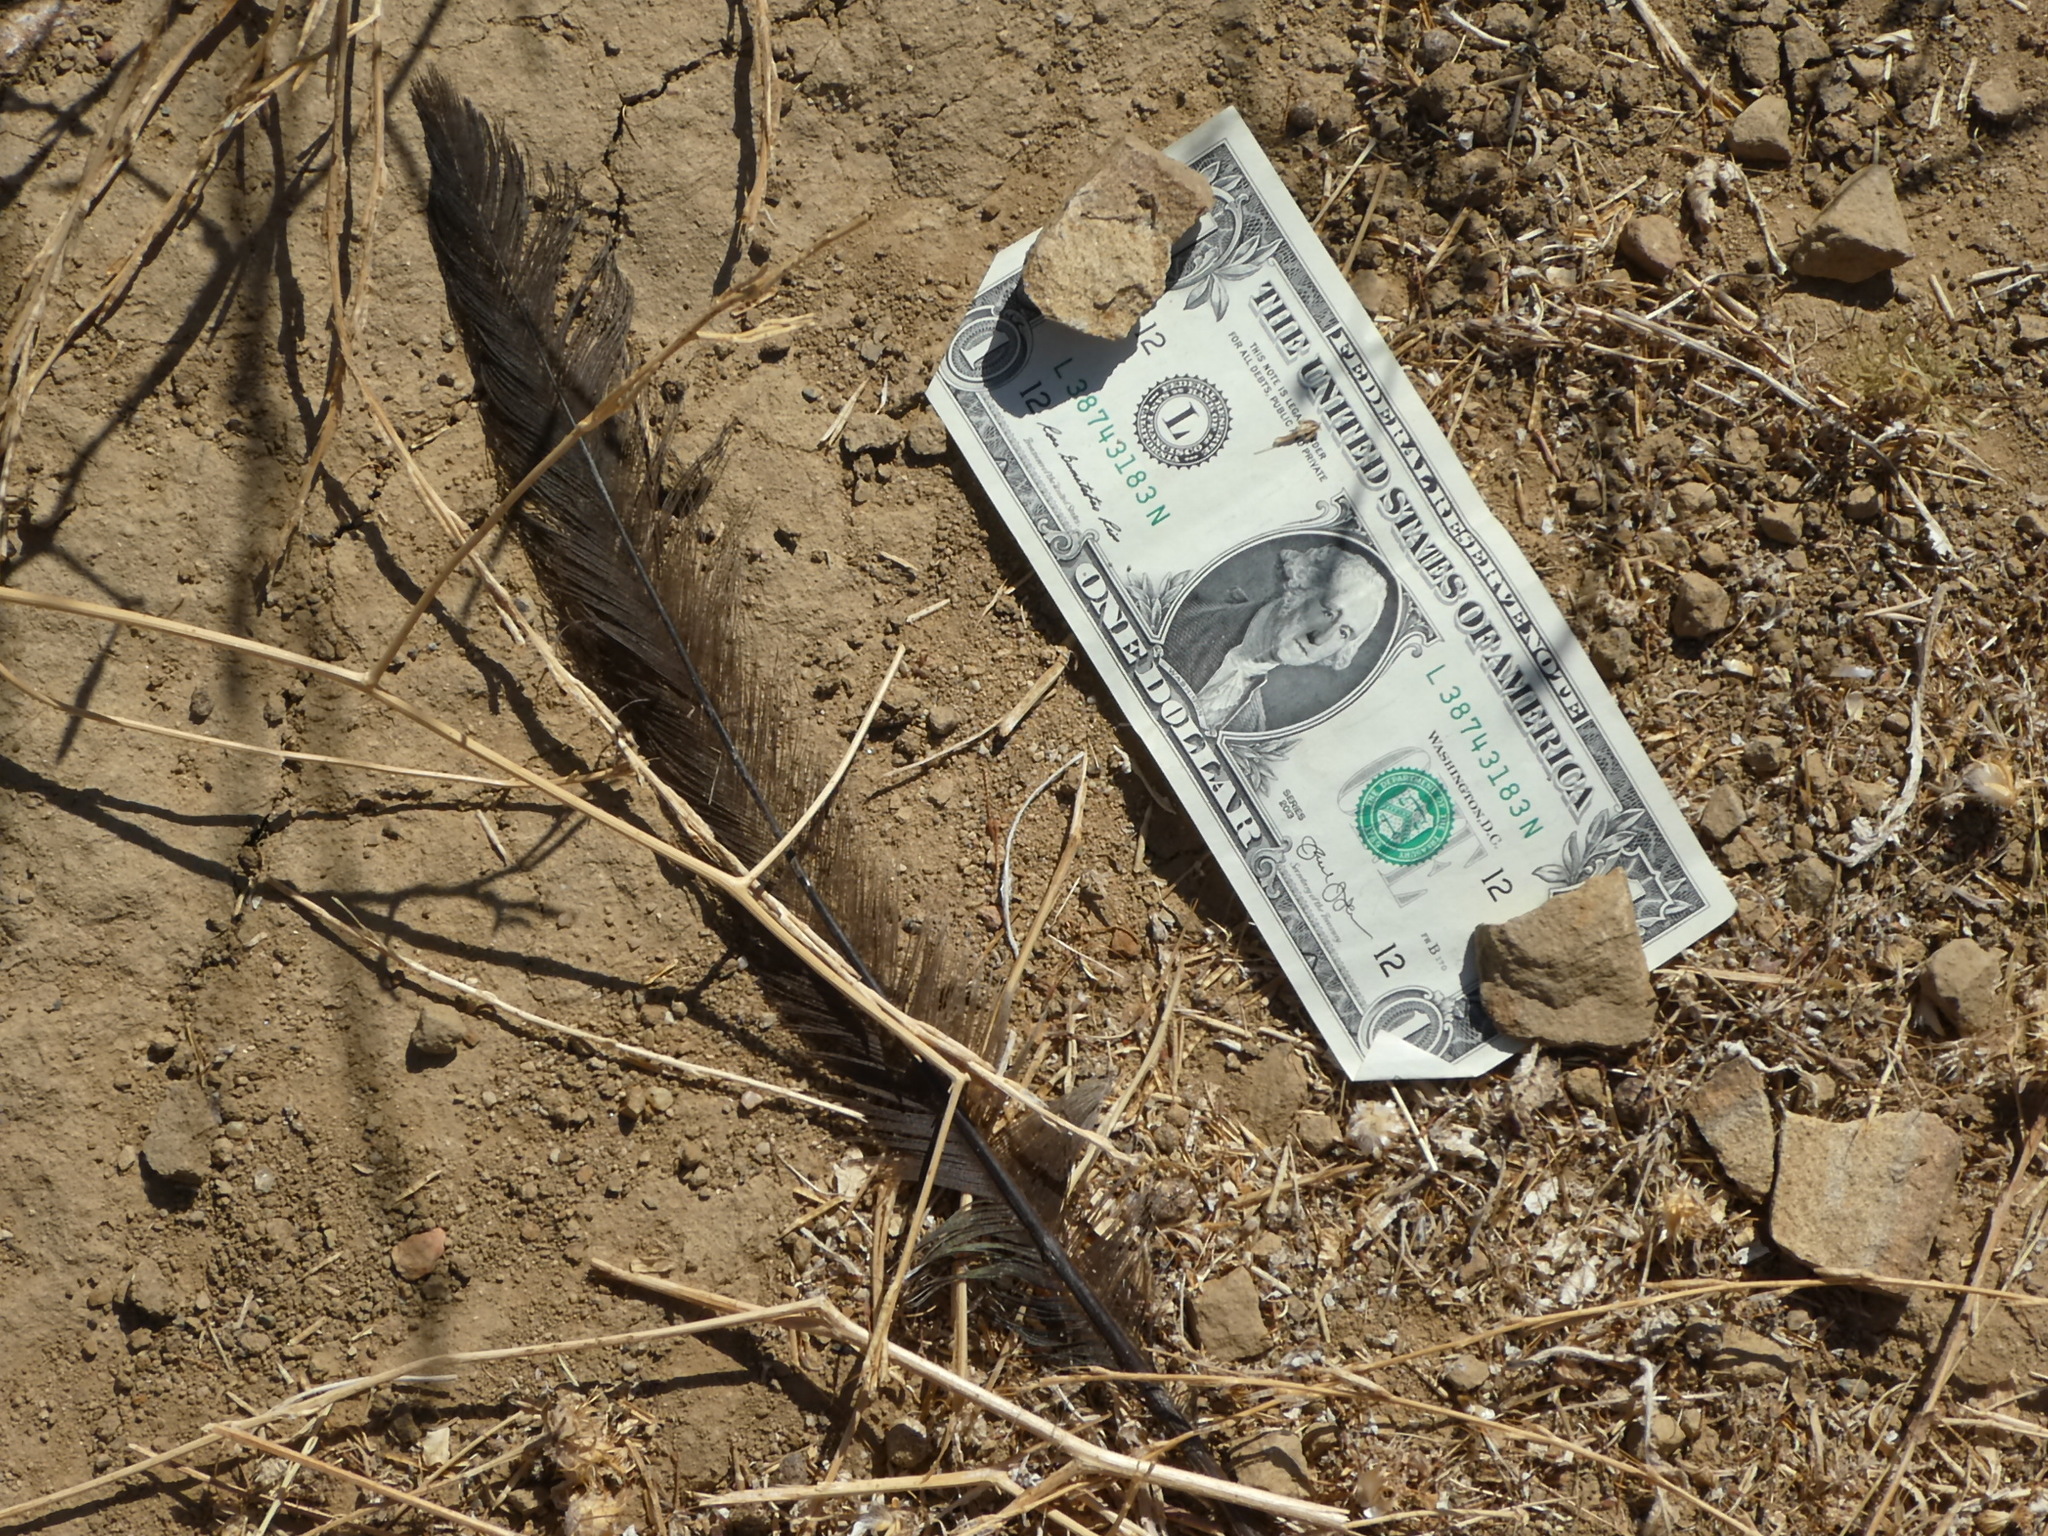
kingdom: Animalia
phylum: Chordata
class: Aves
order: Passeriformes
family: Ptilogonatidae
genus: Phainopepla
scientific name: Phainopepla nitens
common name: Phainopepla
